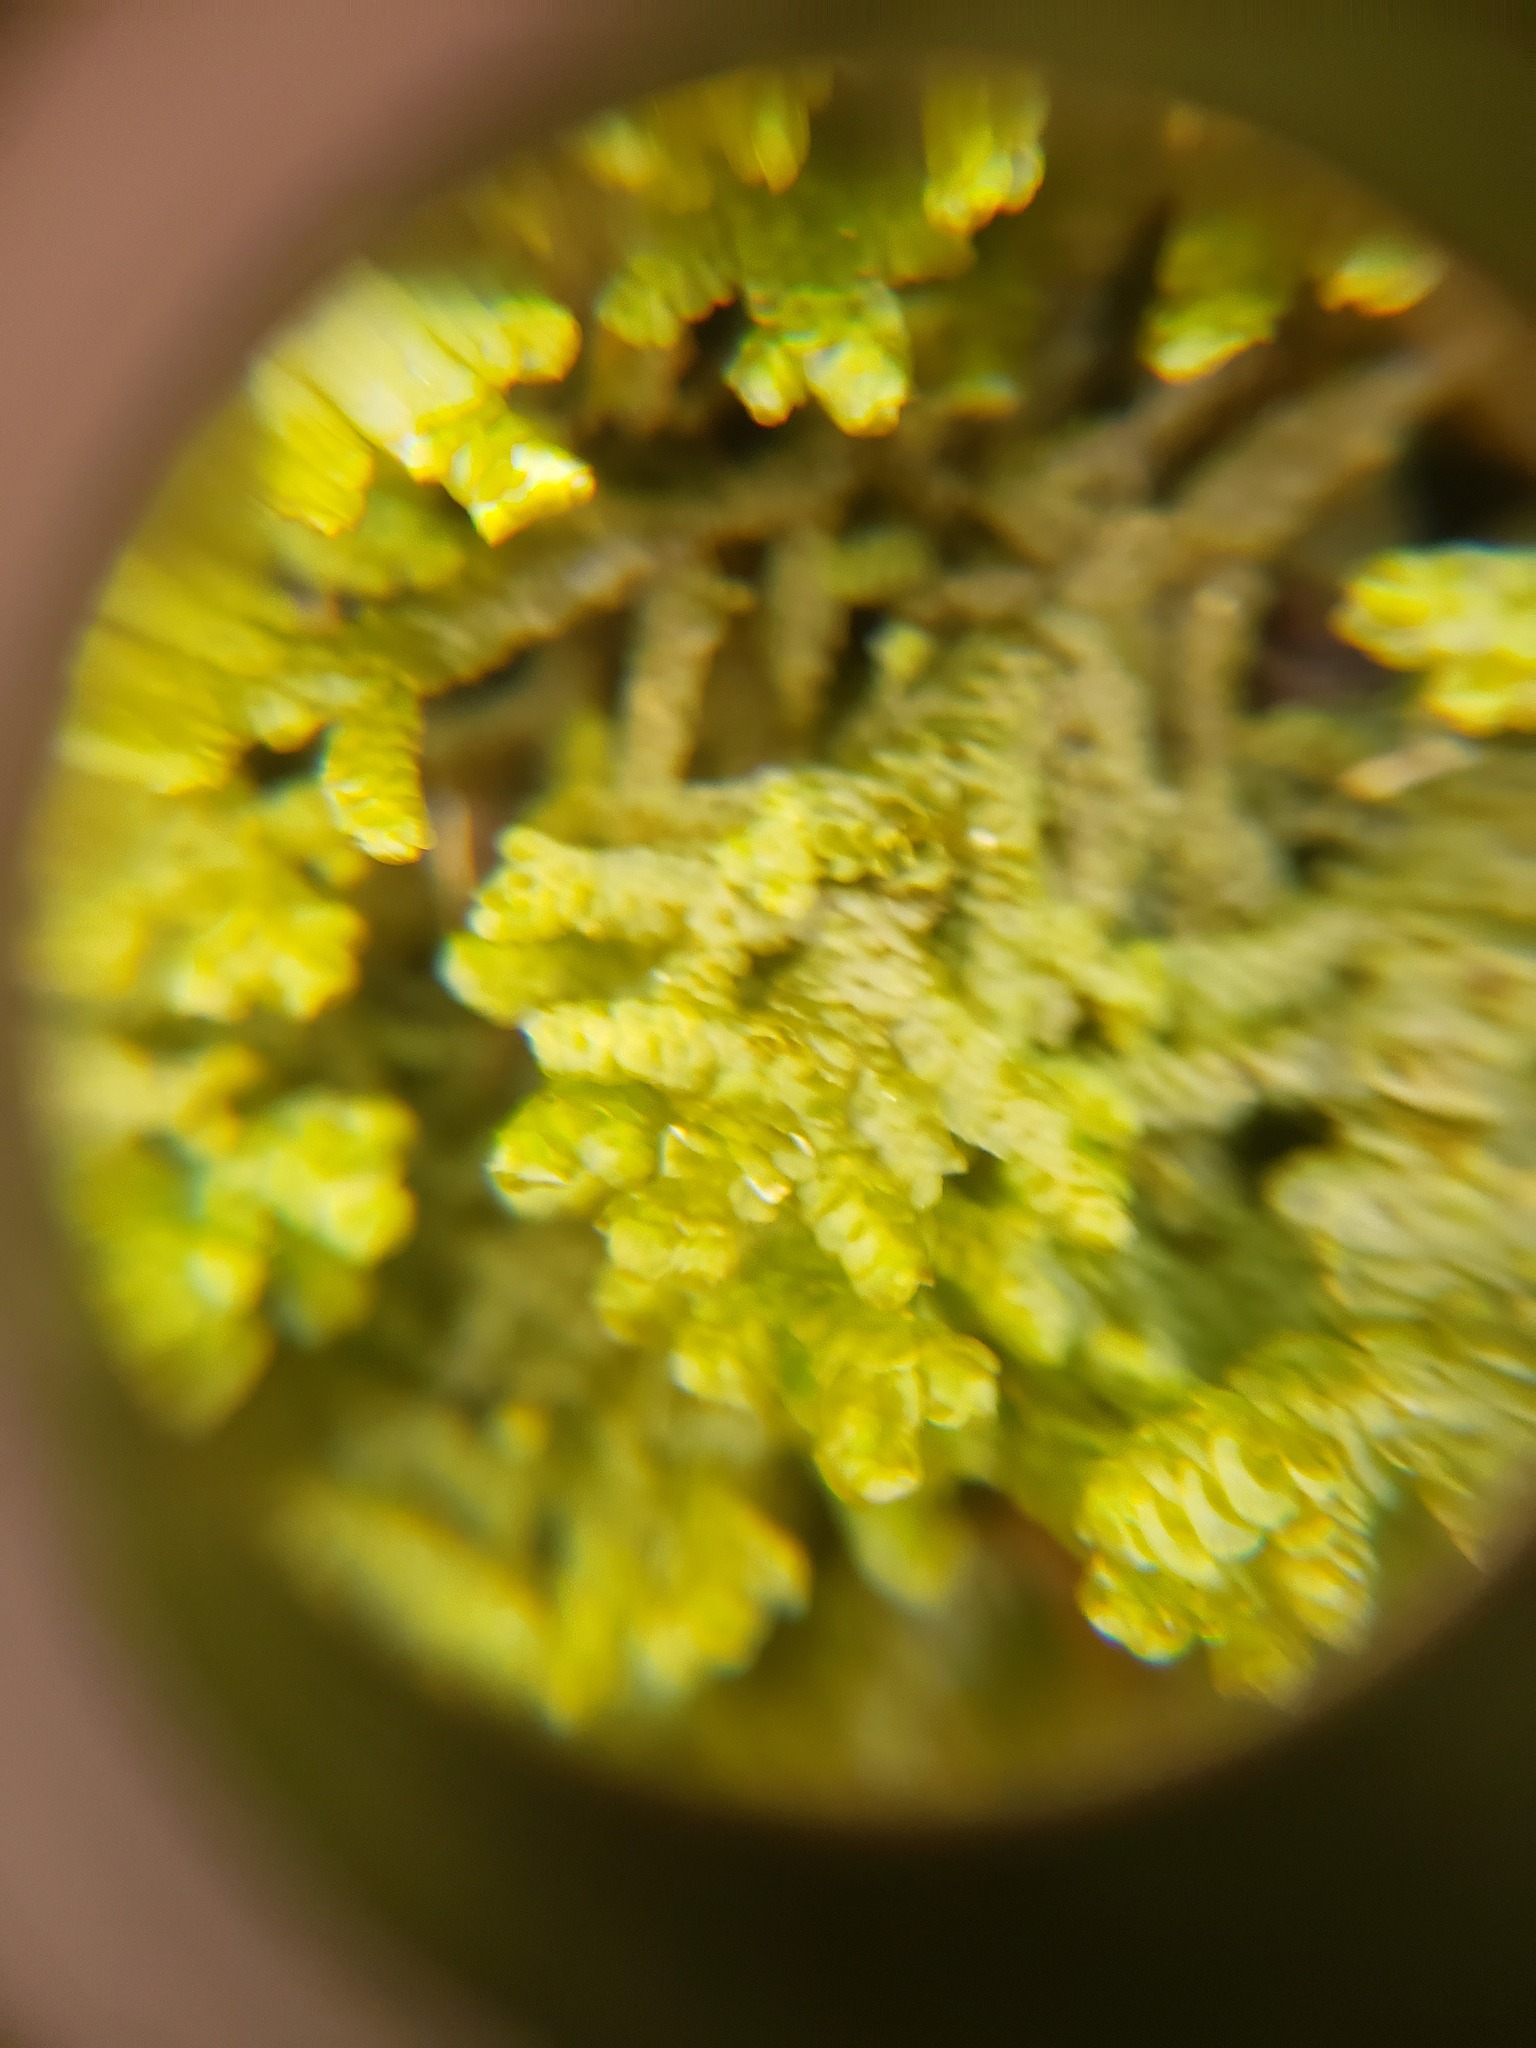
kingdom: Plantae
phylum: Marchantiophyta
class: Jungermanniopsida
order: Porellales
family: Porellaceae
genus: Porella
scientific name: Porella platyphylla
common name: Wall scalewort
